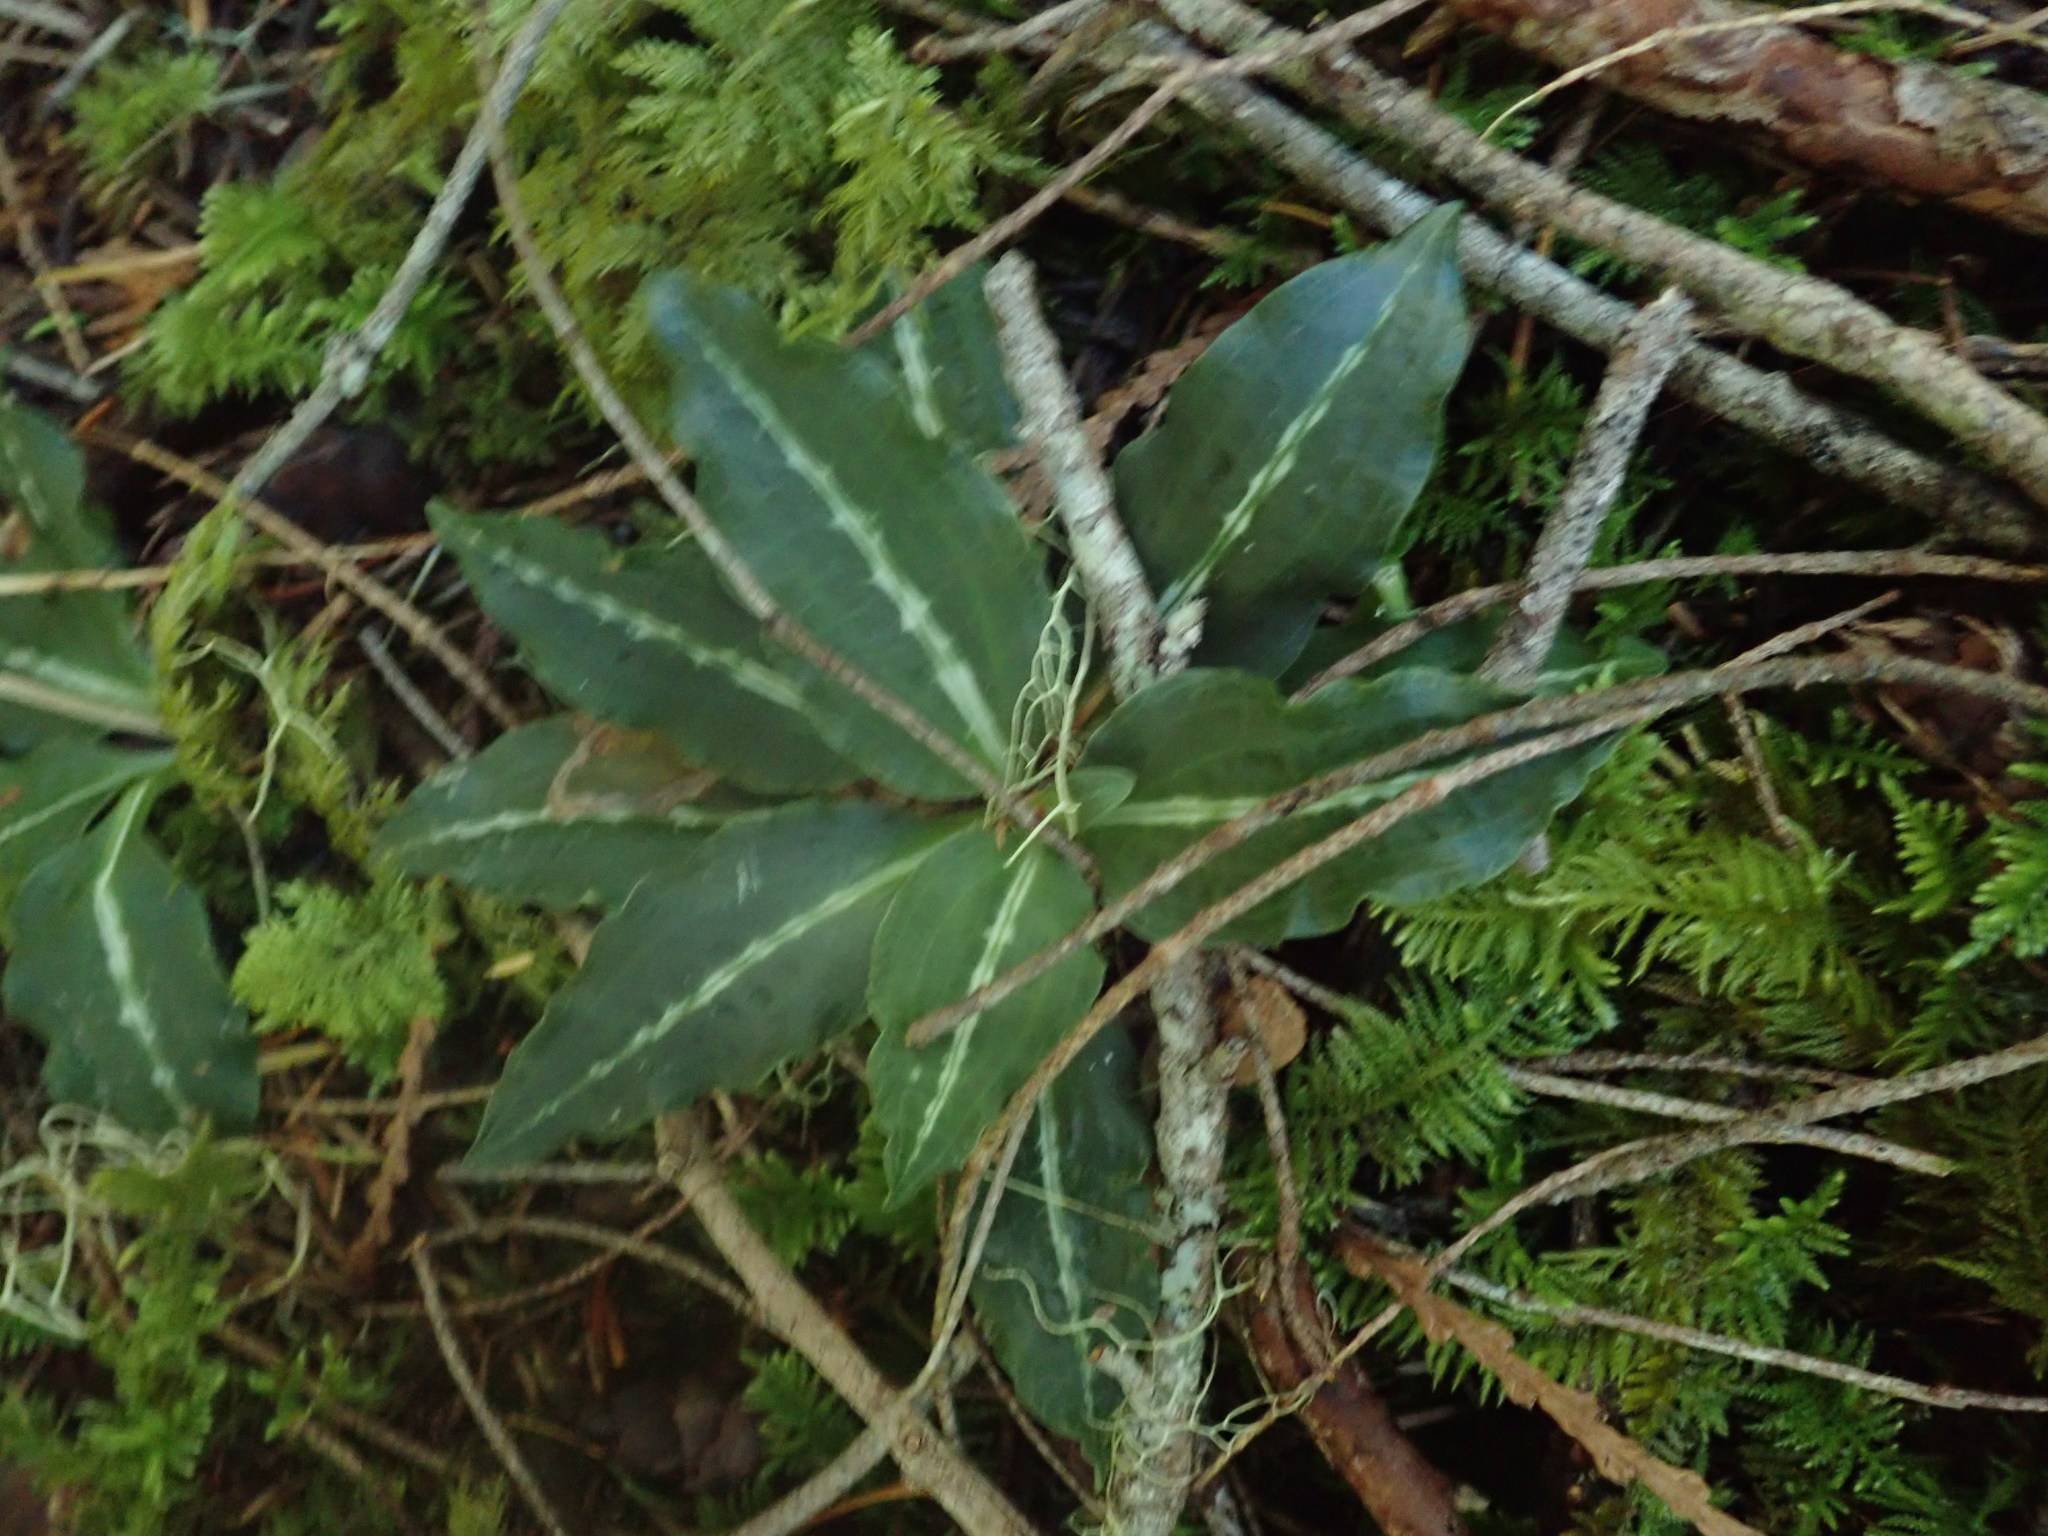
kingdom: Plantae
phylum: Tracheophyta
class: Liliopsida
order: Asparagales
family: Orchidaceae
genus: Goodyera
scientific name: Goodyera oblongifolia
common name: Giant rattlesnake-plantain
